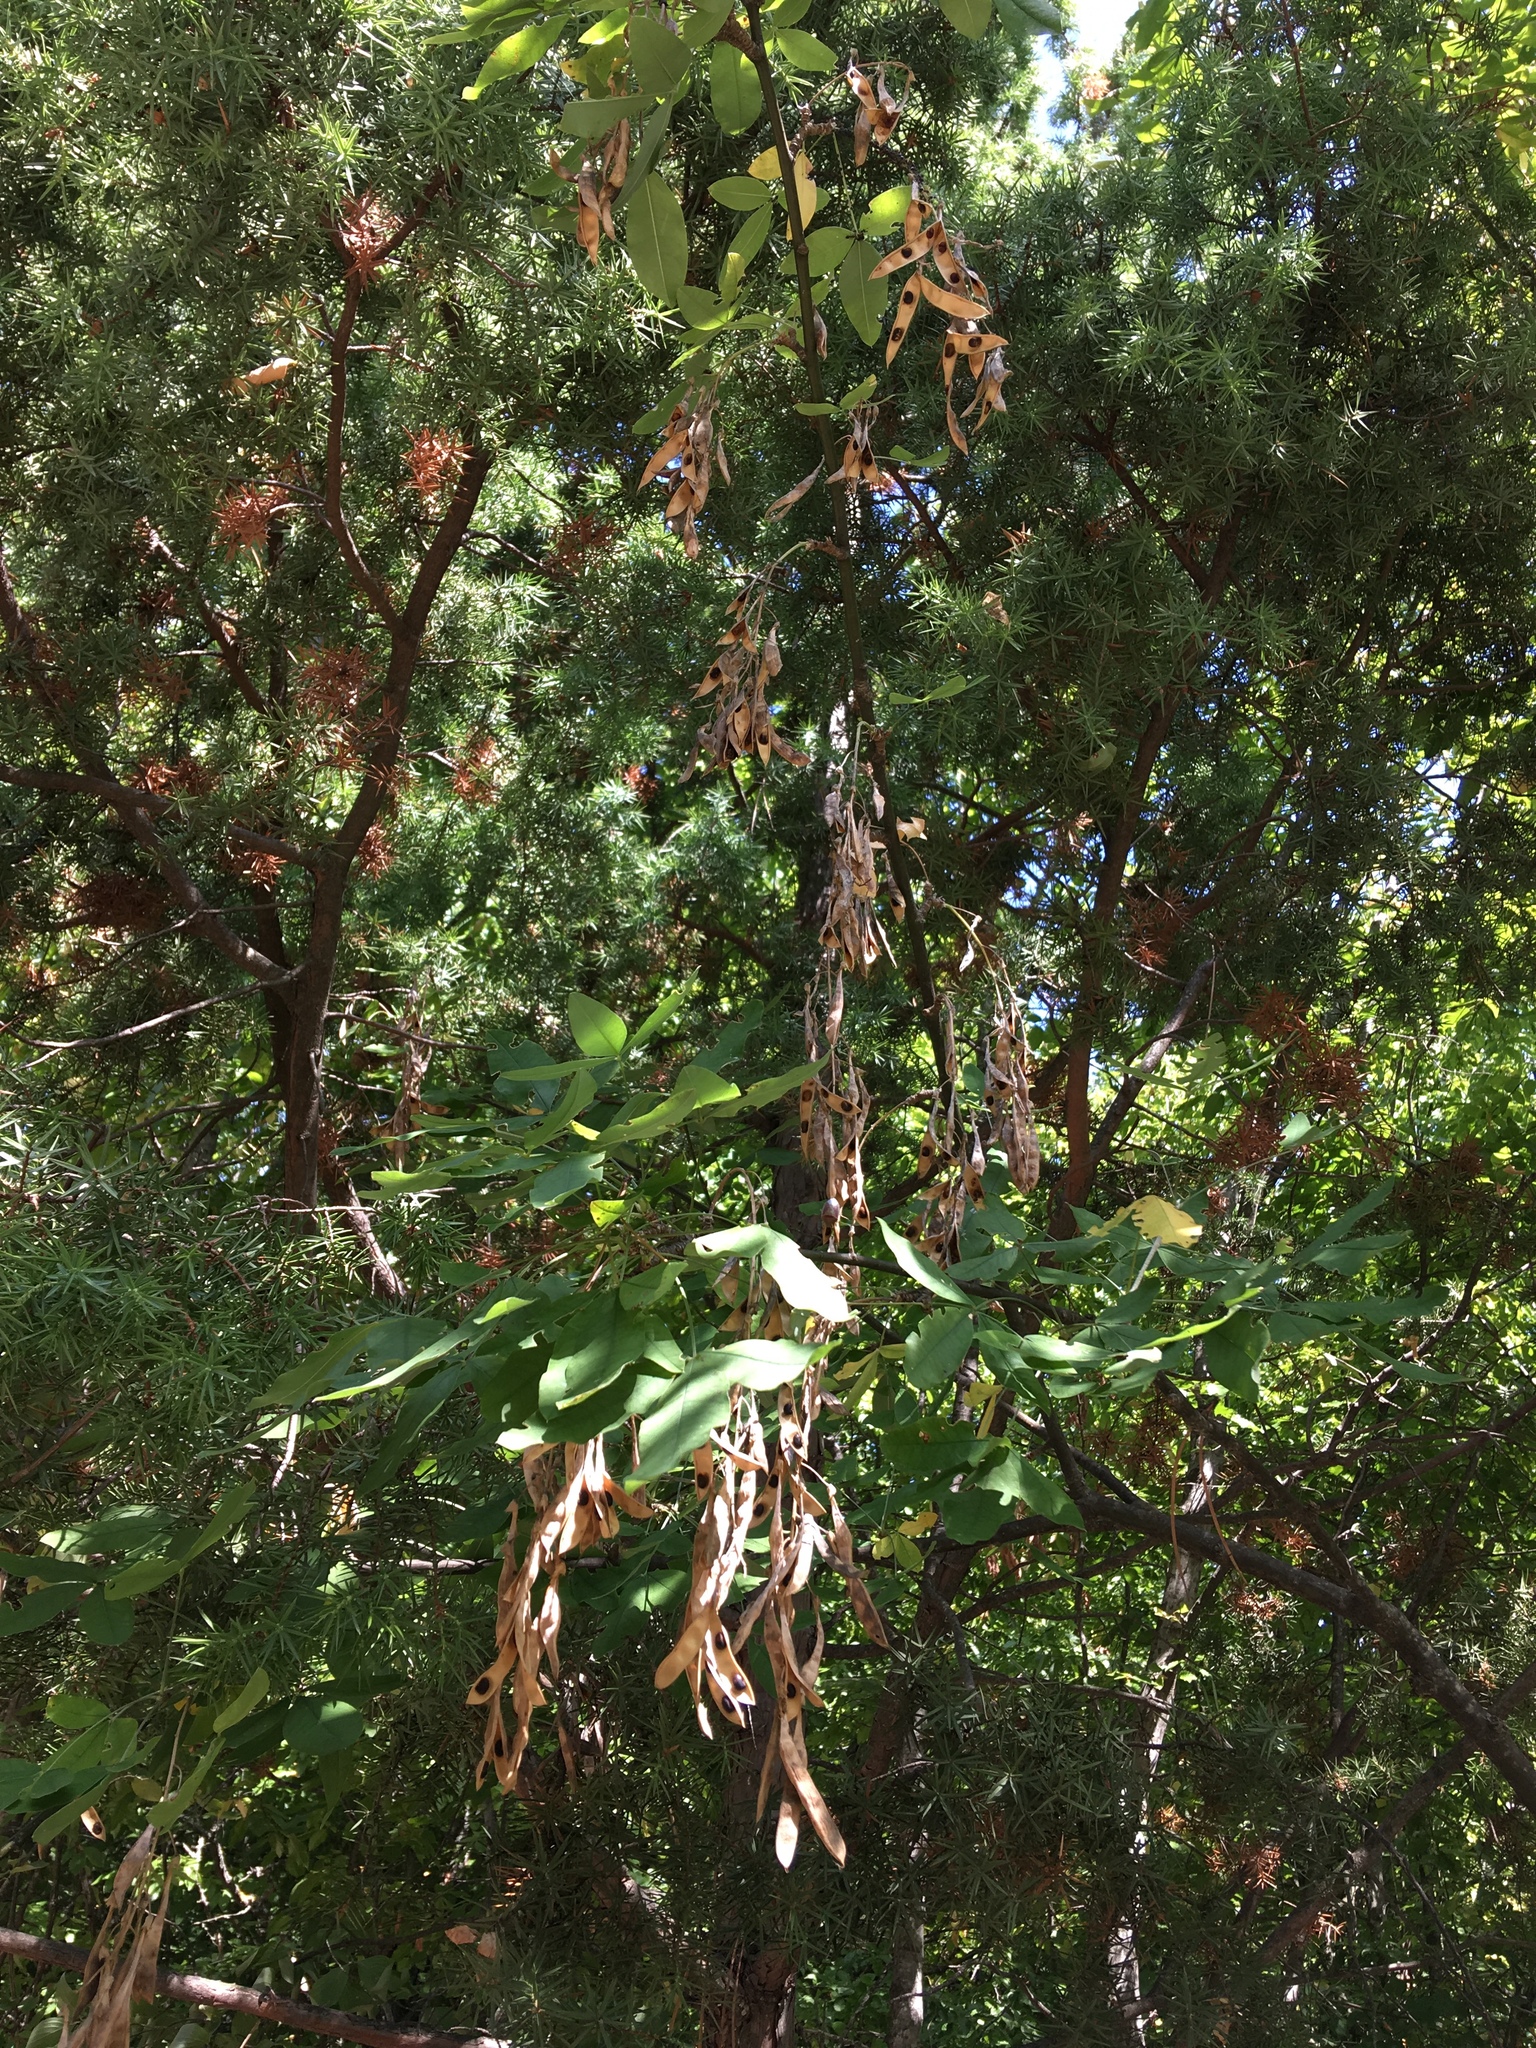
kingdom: Plantae
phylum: Tracheophyta
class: Magnoliopsida
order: Fabales
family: Fabaceae
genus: Laburnum
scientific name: Laburnum anagyroides
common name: Laburnum
